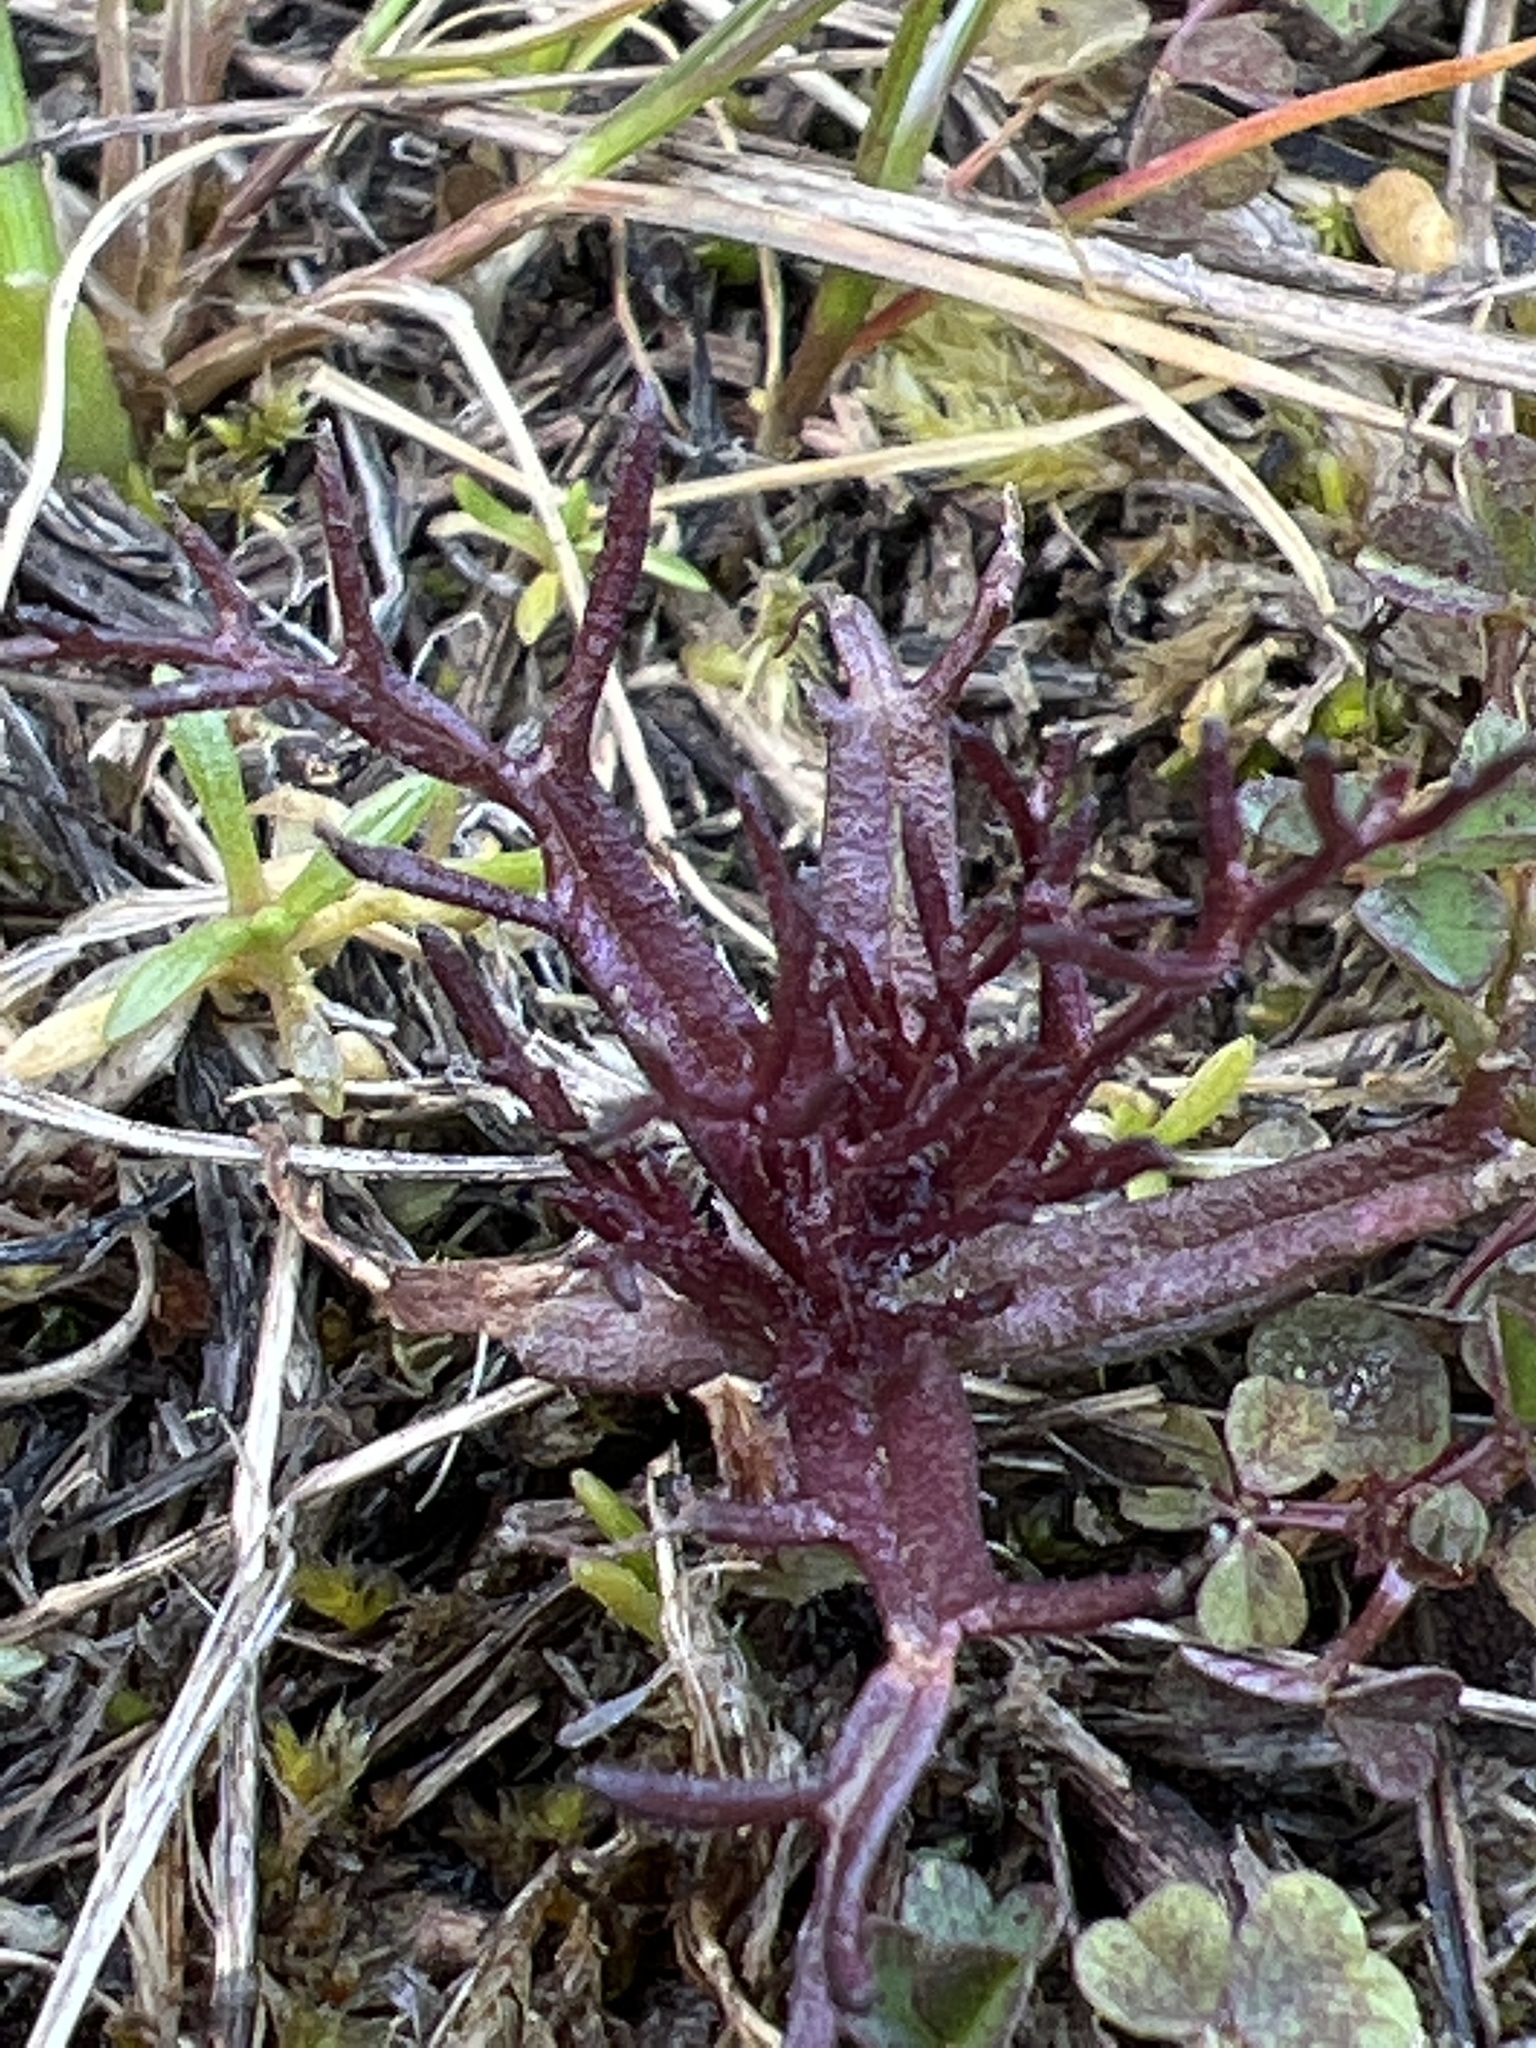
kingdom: Plantae
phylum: Tracheophyta
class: Magnoliopsida
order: Lamiales
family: Orobanchaceae
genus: Triphysaria
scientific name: Triphysaria pusilla
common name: Dwarf false owl-clover
